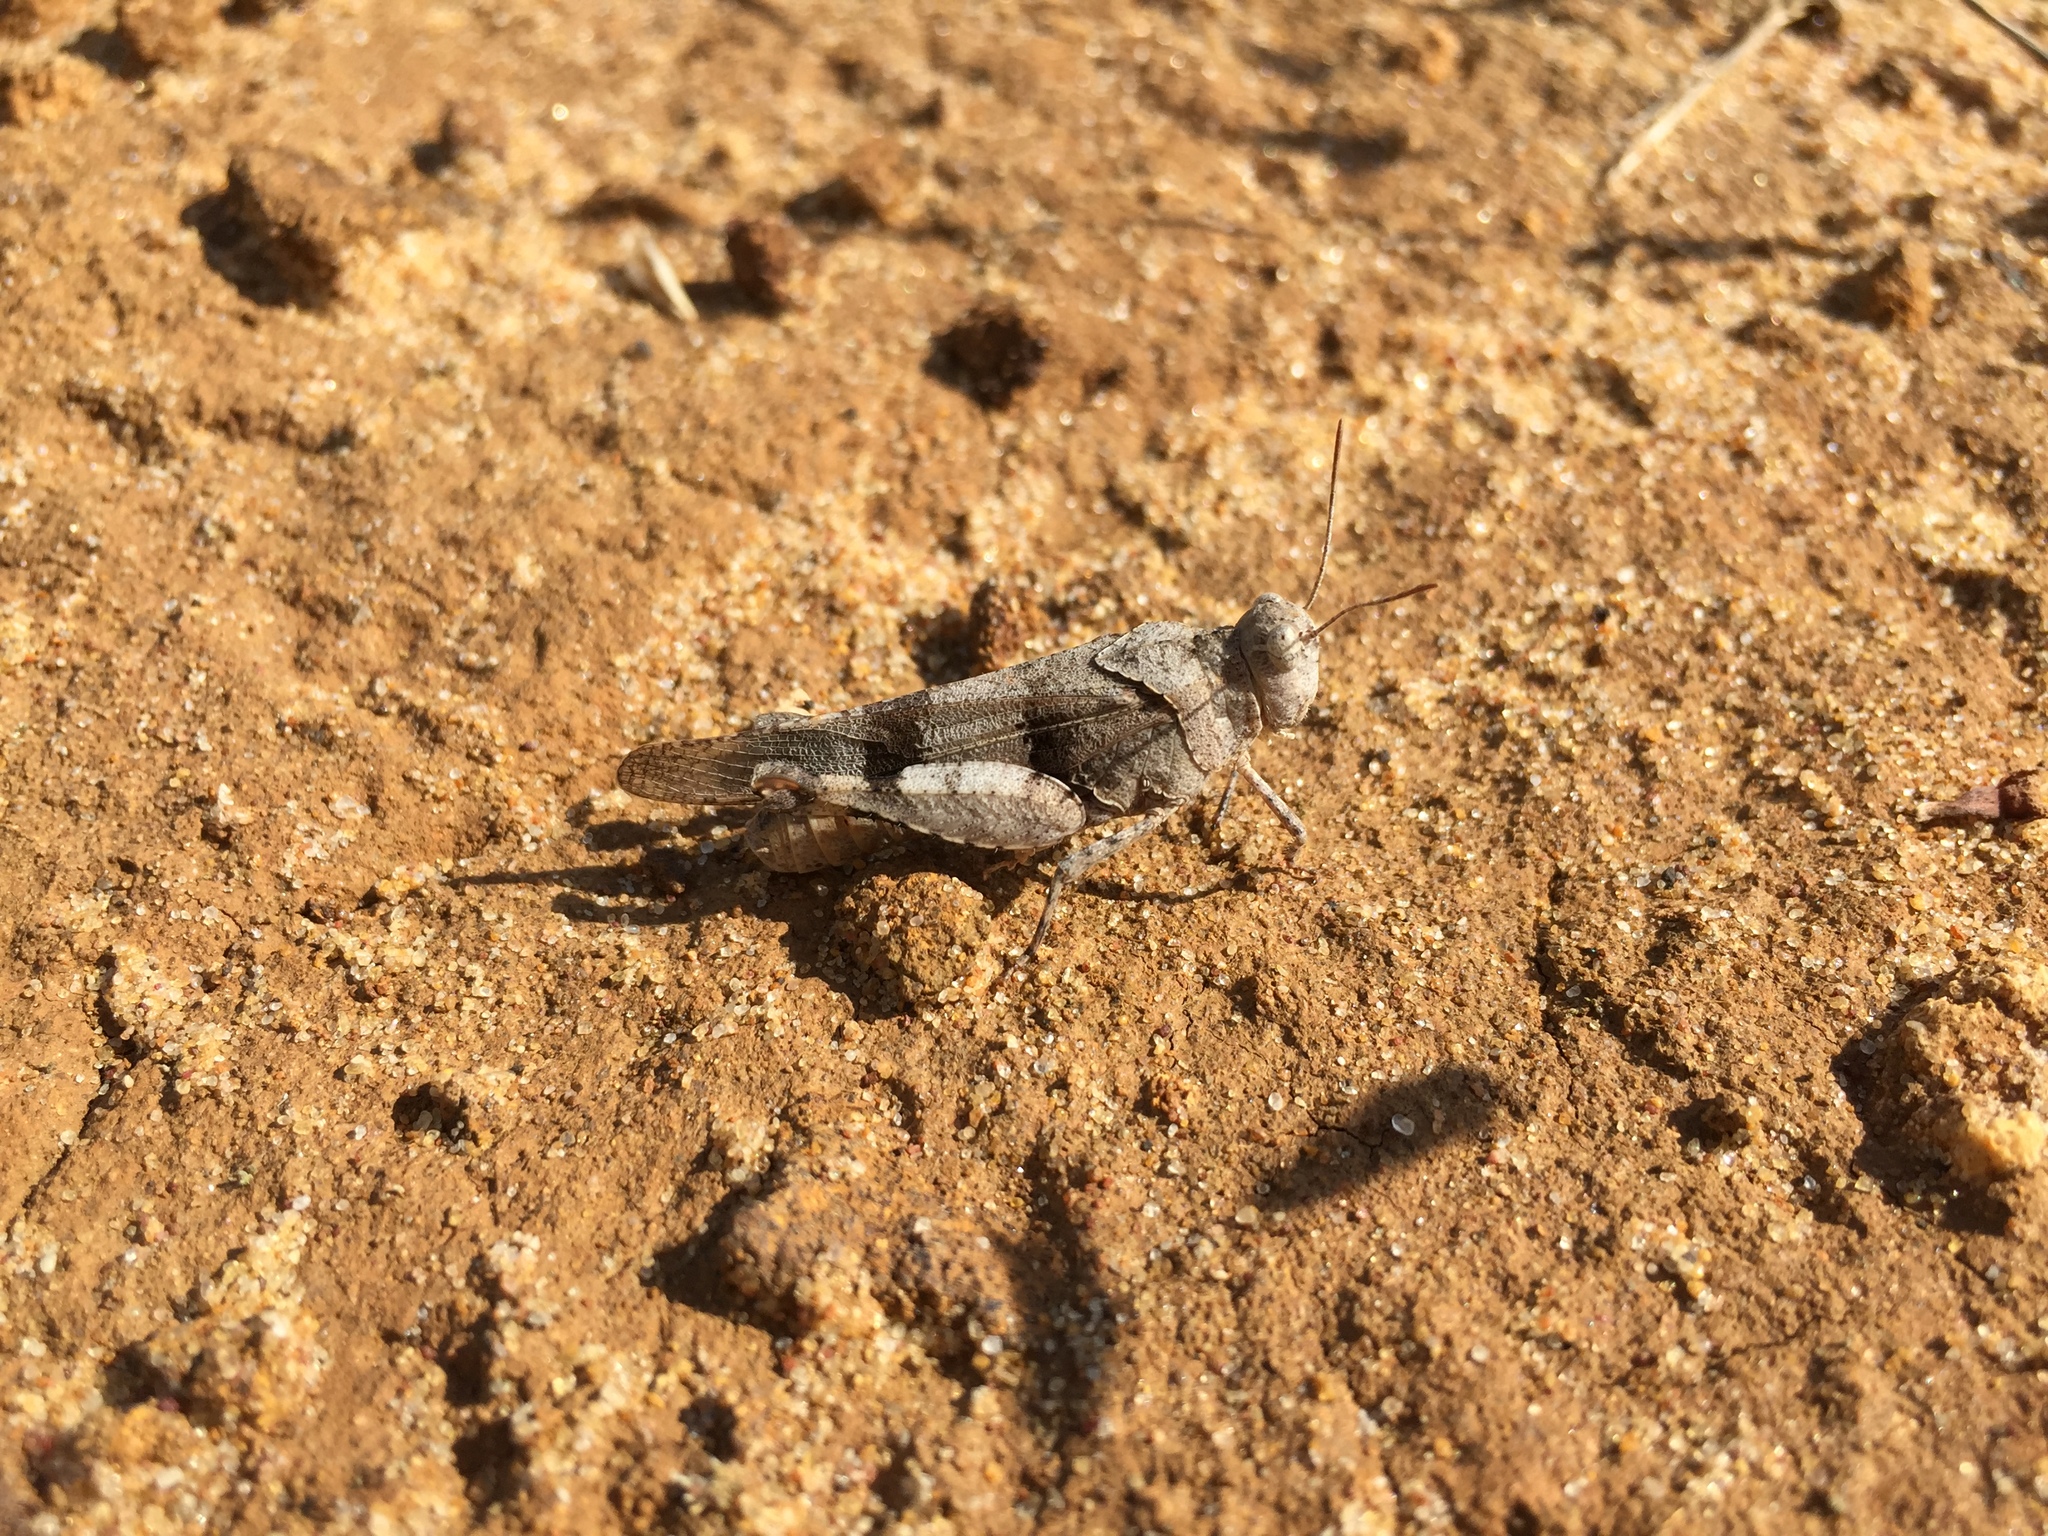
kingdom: Animalia
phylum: Arthropoda
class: Insecta
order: Orthoptera
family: Acrididae
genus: Oedipoda
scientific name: Oedipoda caerulescens
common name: Blue-winged grasshopper
